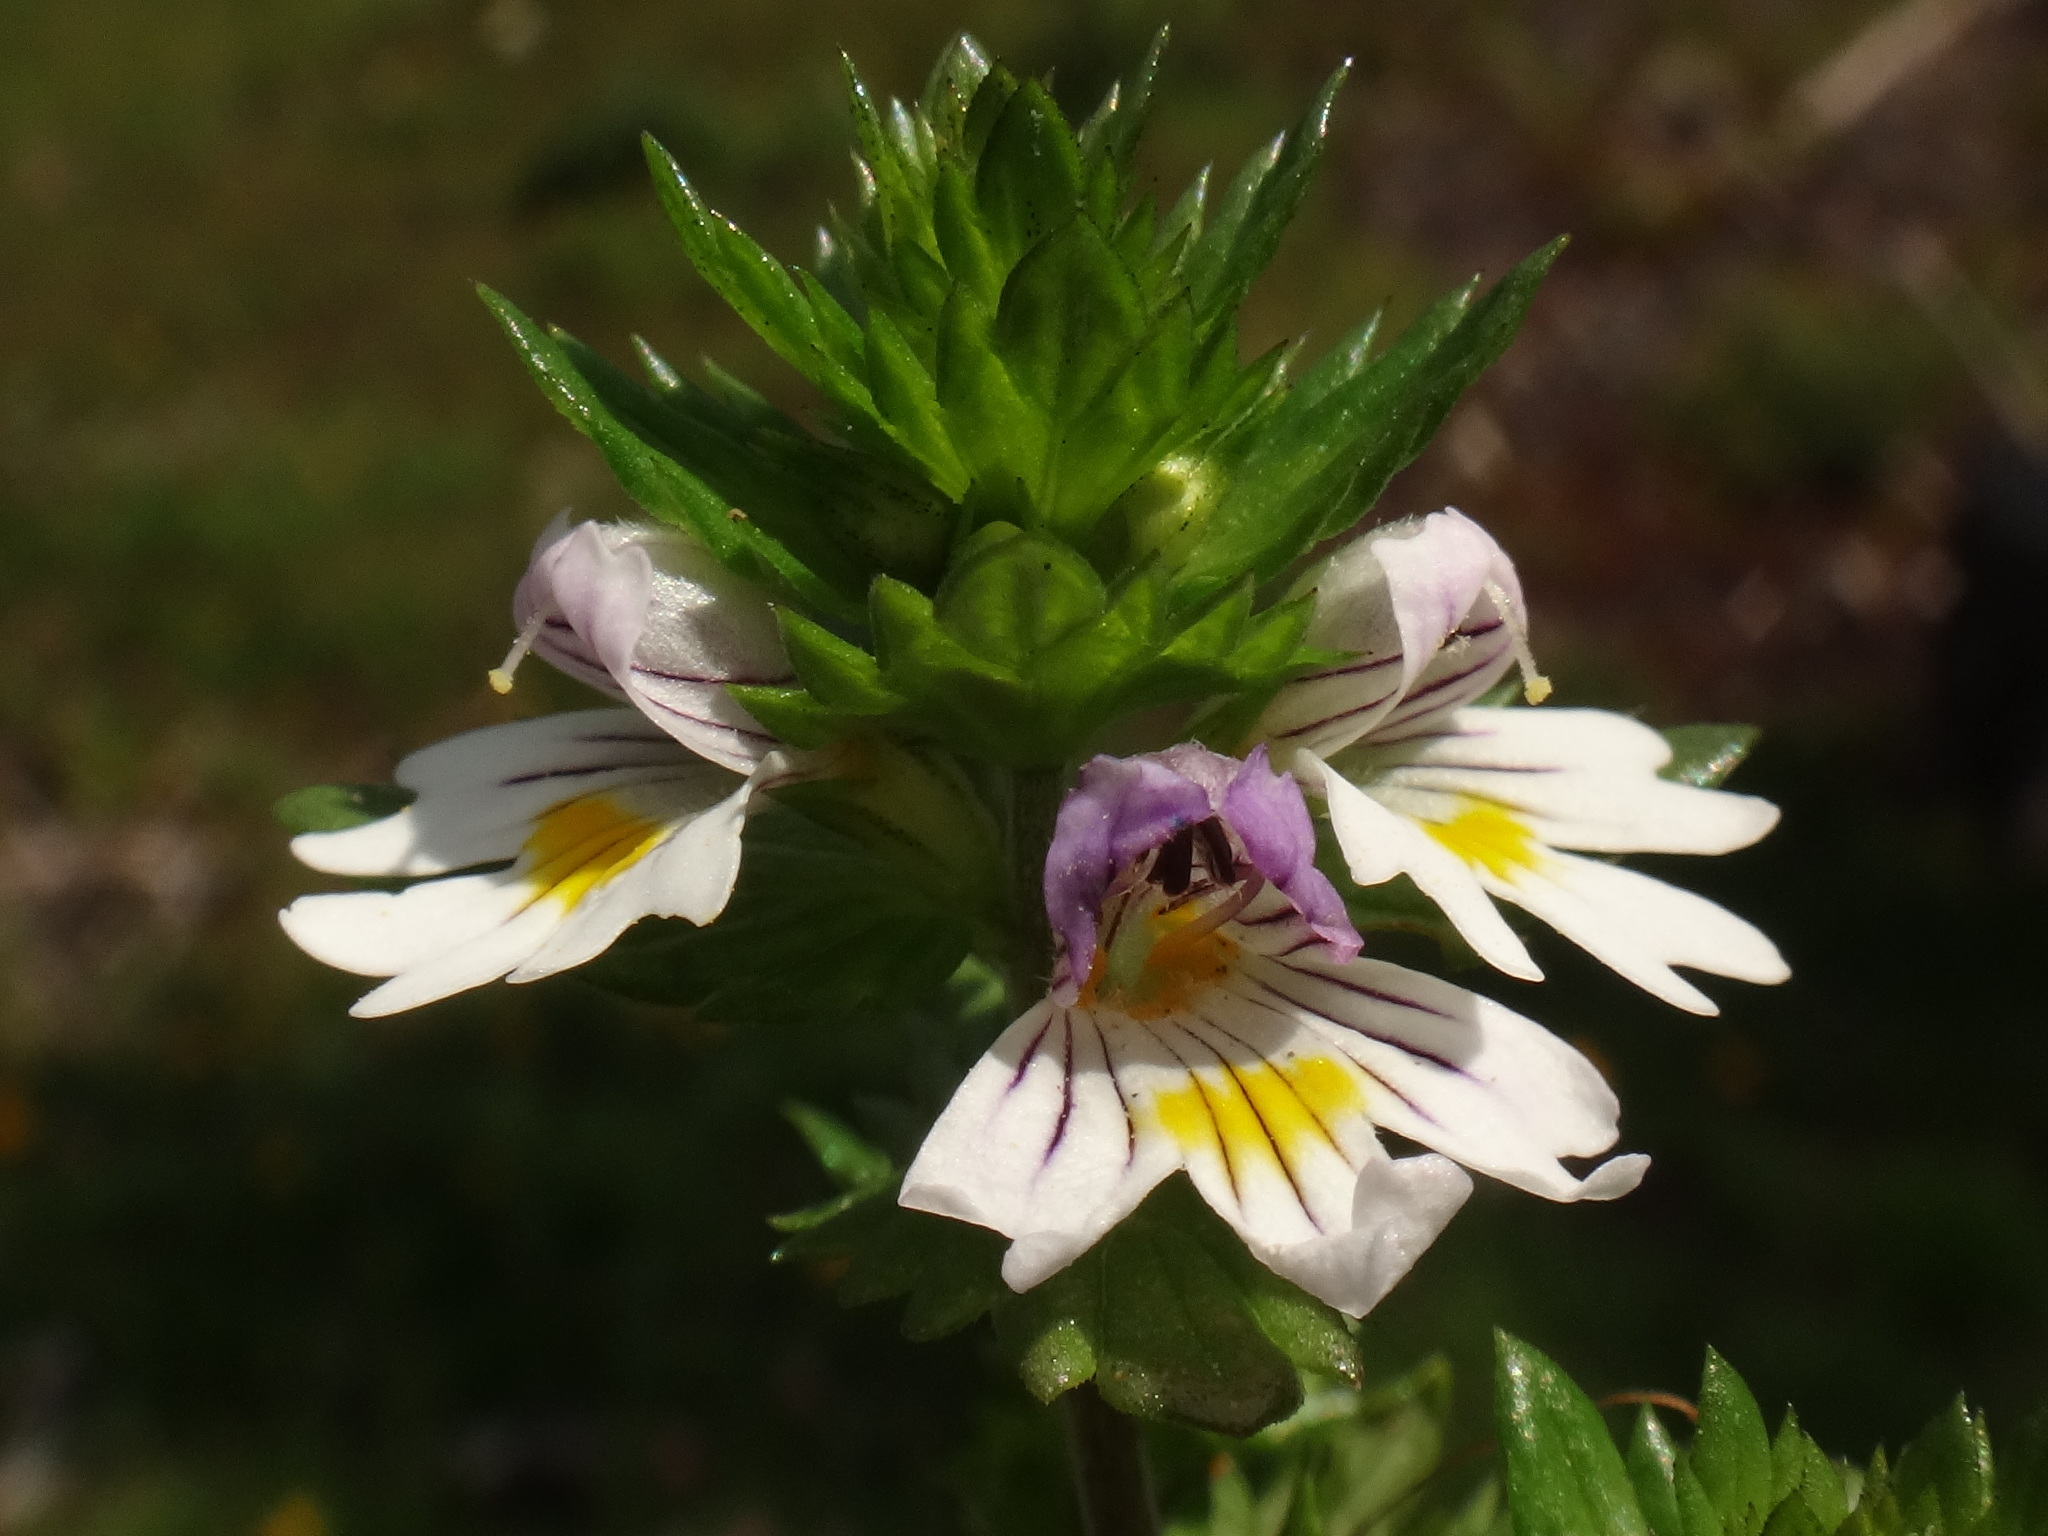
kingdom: Plantae
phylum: Tracheophyta
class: Magnoliopsida
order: Lamiales
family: Orobanchaceae
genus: Euphrasia
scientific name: Euphrasia picta
